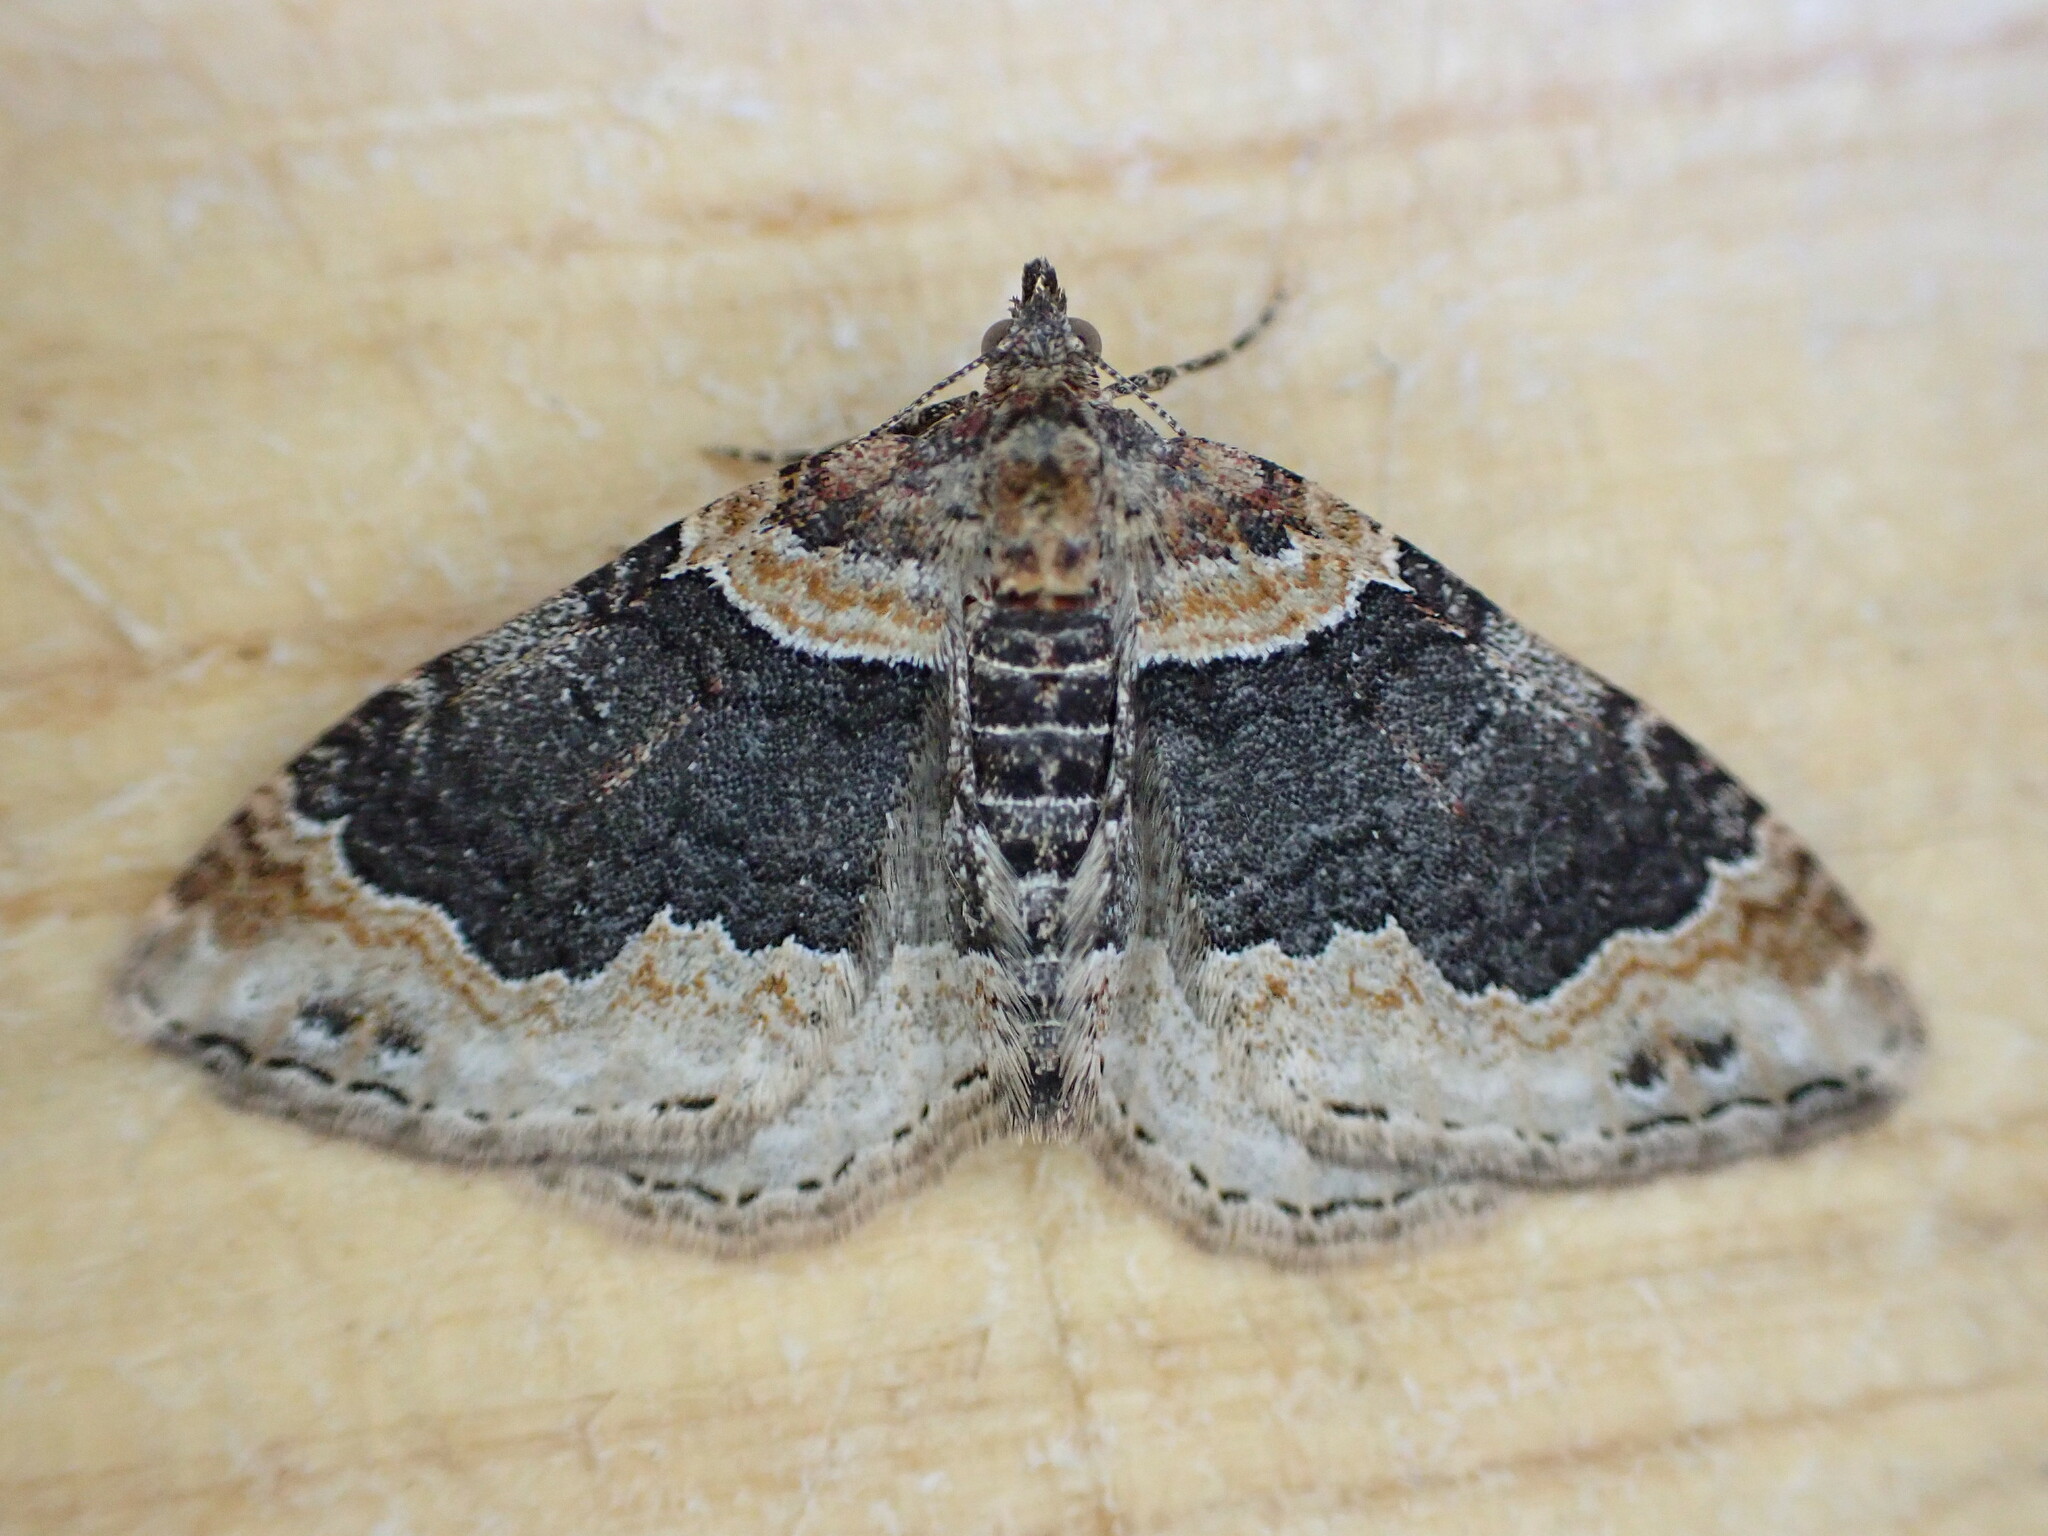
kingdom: Animalia
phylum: Arthropoda
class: Insecta
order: Lepidoptera
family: Geometridae
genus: Xanthorhoe
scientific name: Xanthorhoe ferrugata
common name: Dark-barred twin-spot carpet
